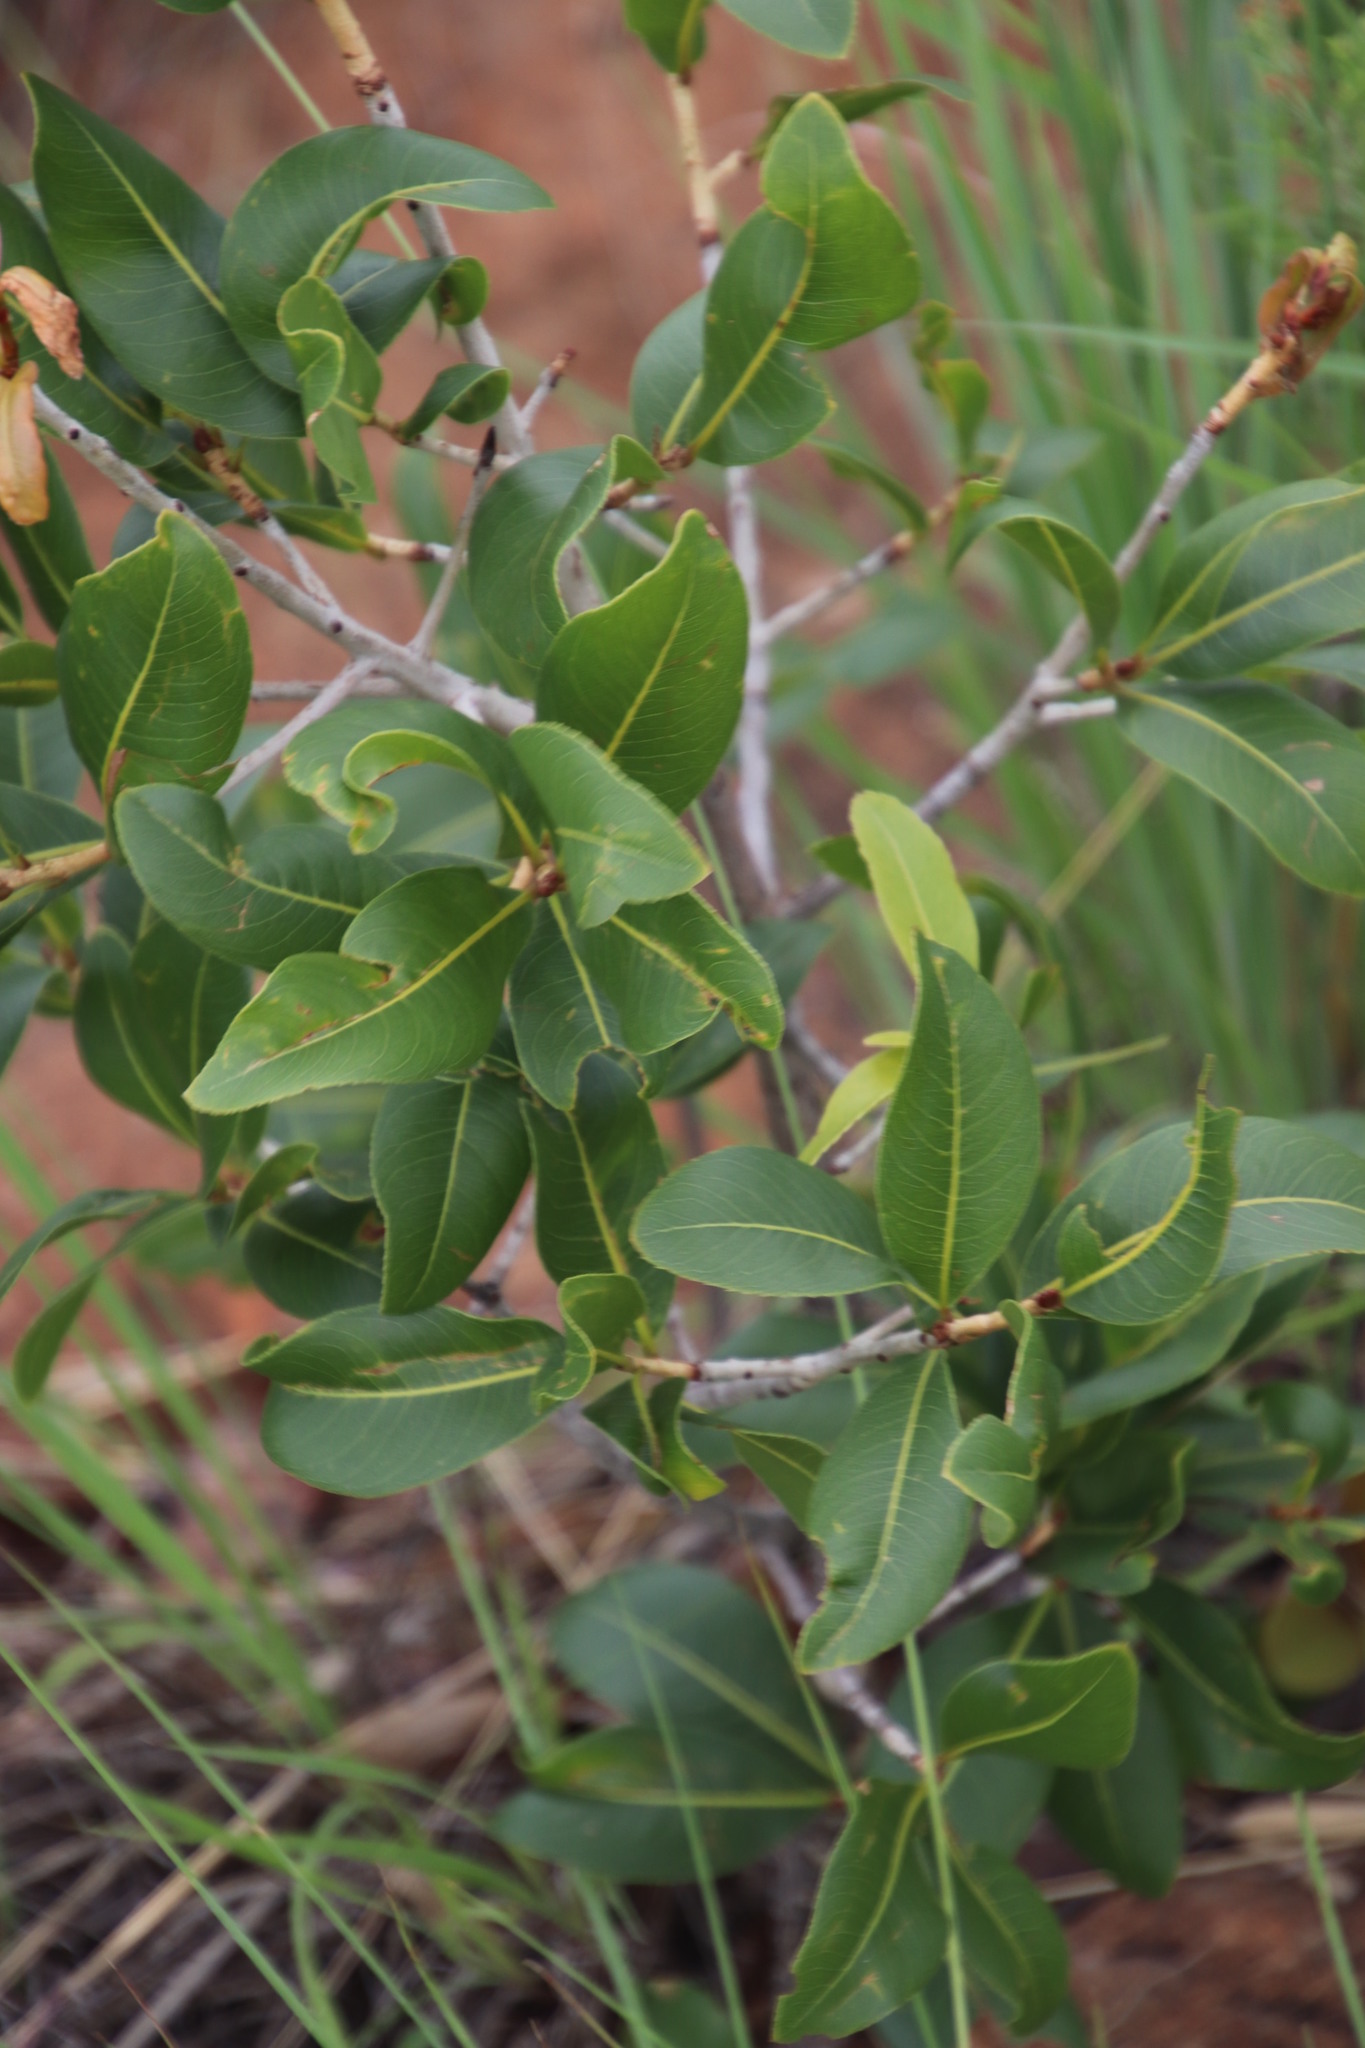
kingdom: Plantae
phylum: Tracheophyta
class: Magnoliopsida
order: Malpighiales
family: Ochnaceae
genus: Ochna
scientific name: Ochna pulchra
